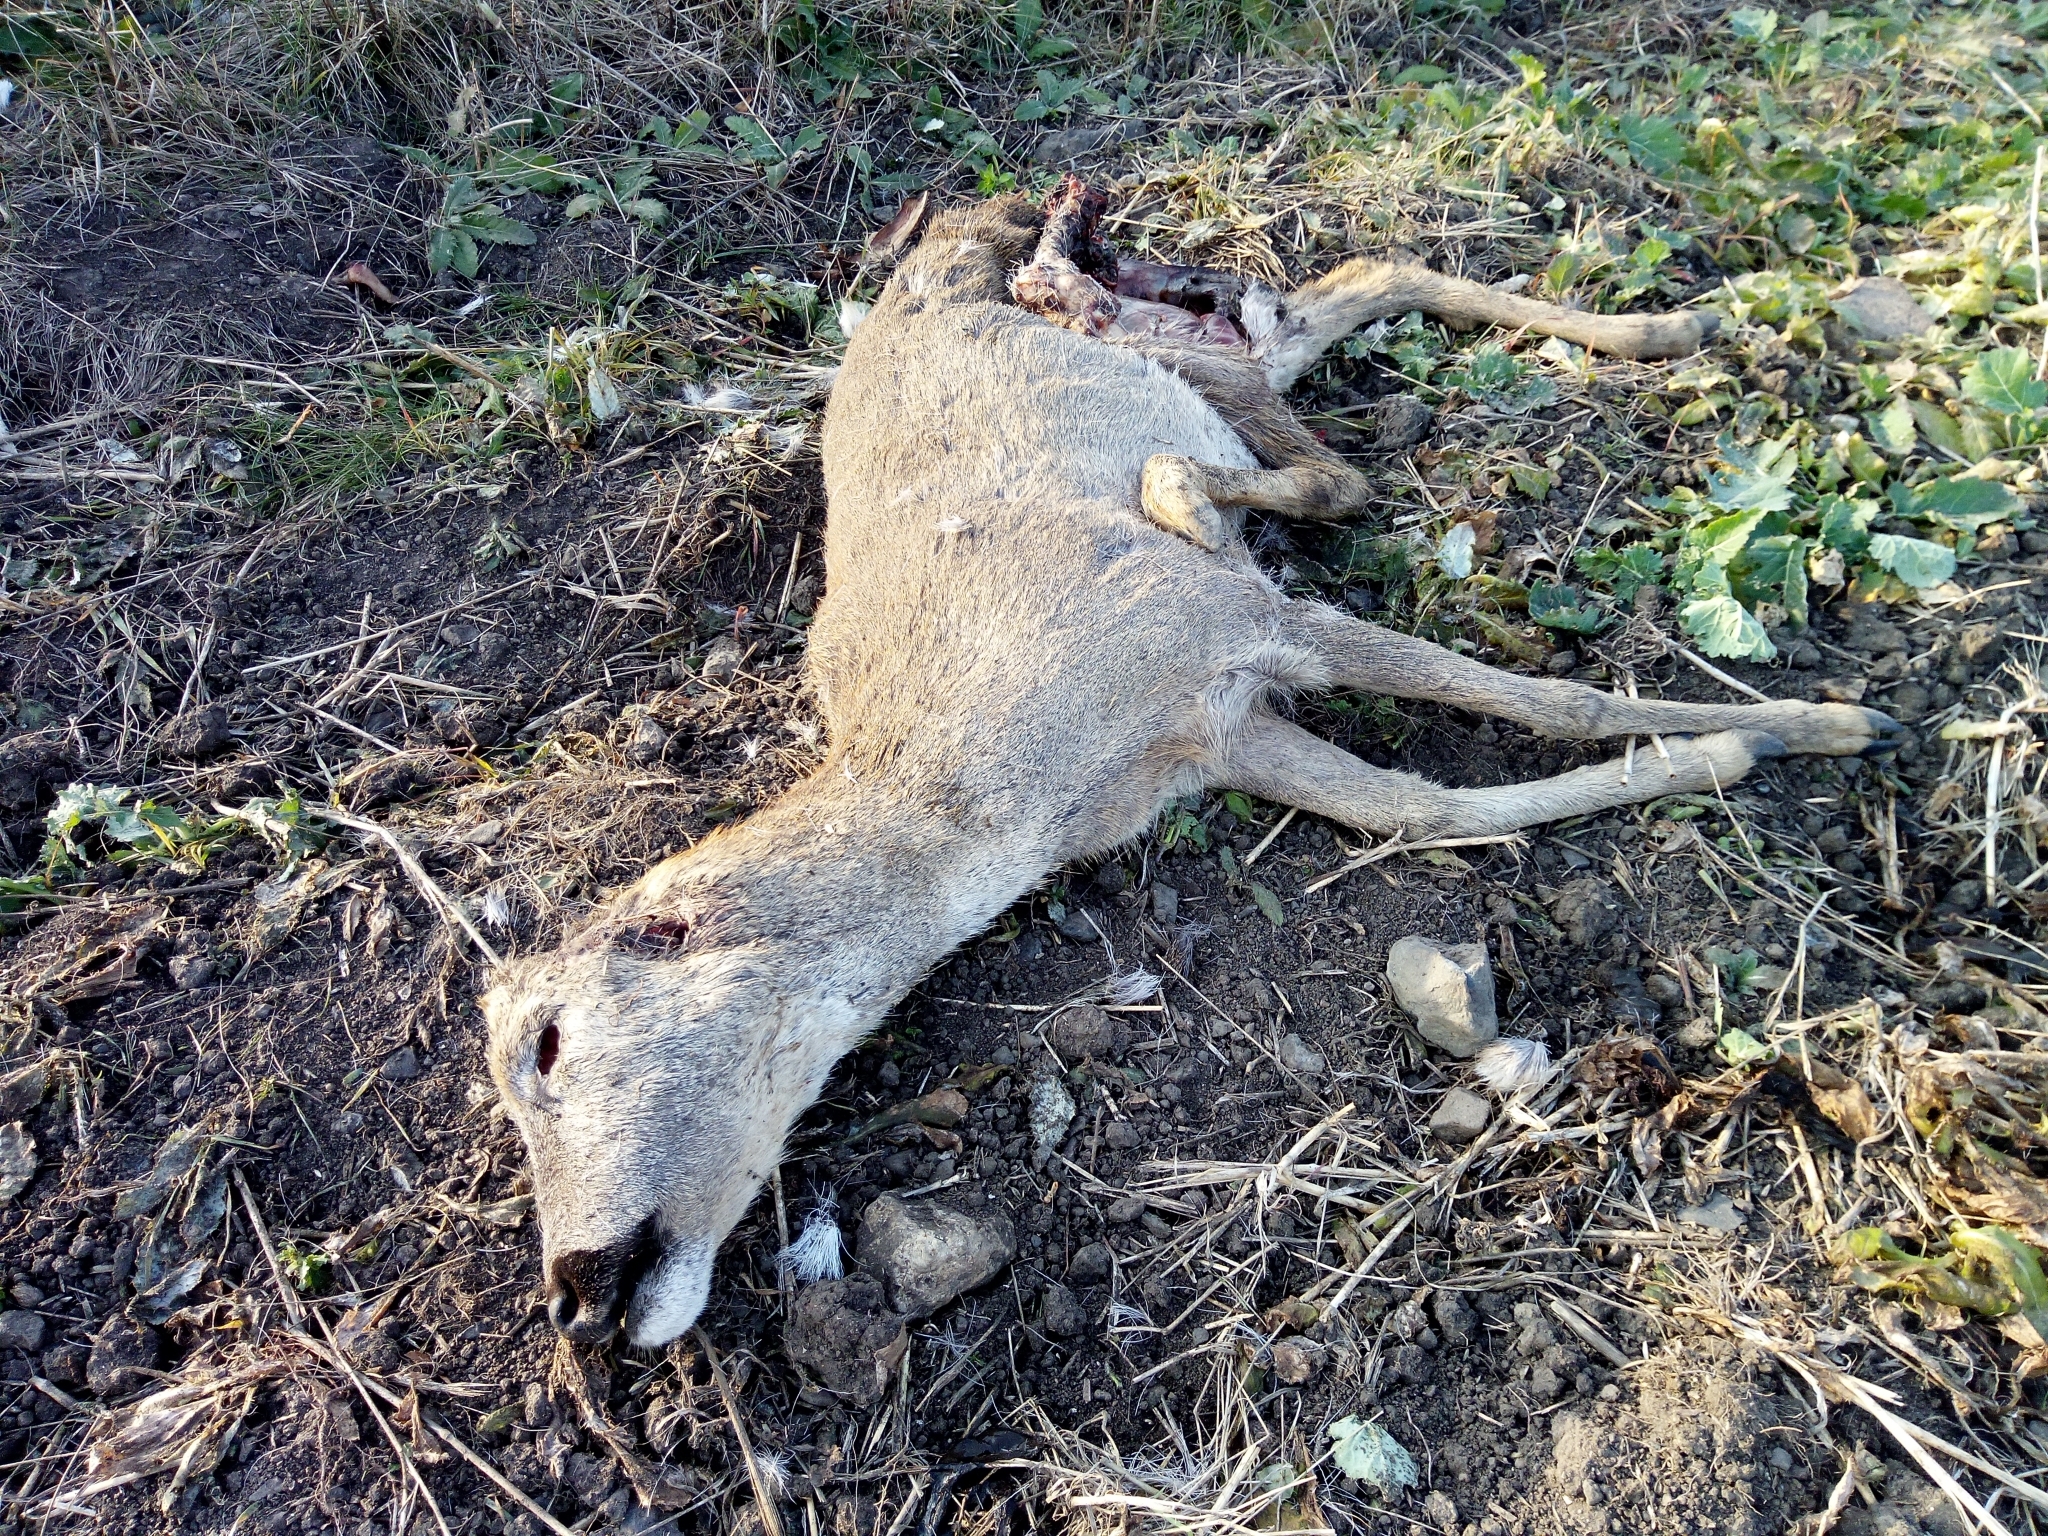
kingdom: Animalia
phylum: Chordata
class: Mammalia
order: Artiodactyla
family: Cervidae
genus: Capreolus
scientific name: Capreolus capreolus
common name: Western roe deer
